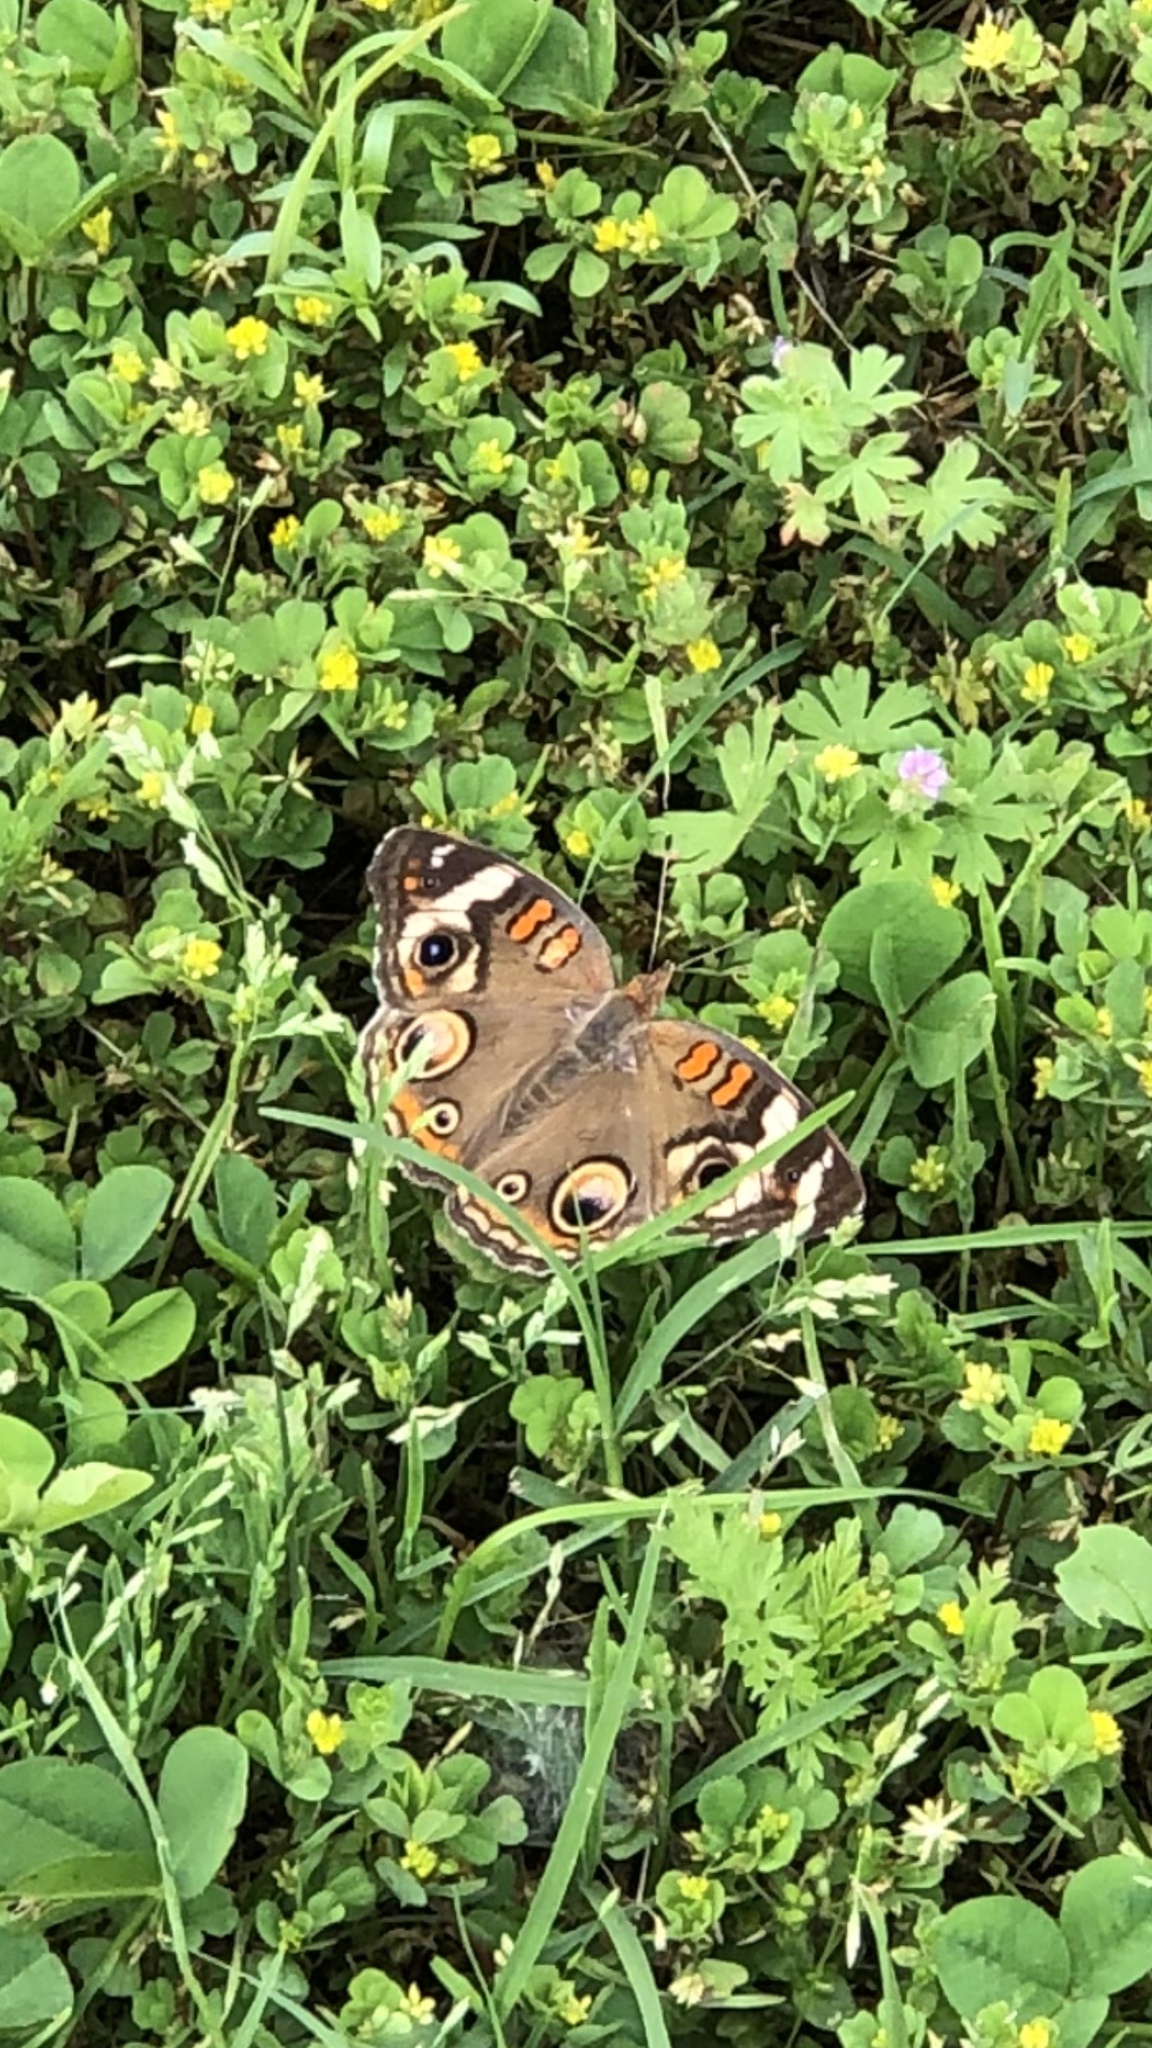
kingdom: Animalia
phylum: Arthropoda
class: Insecta
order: Lepidoptera
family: Nymphalidae
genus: Junonia
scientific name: Junonia coenia
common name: Common buckeye
